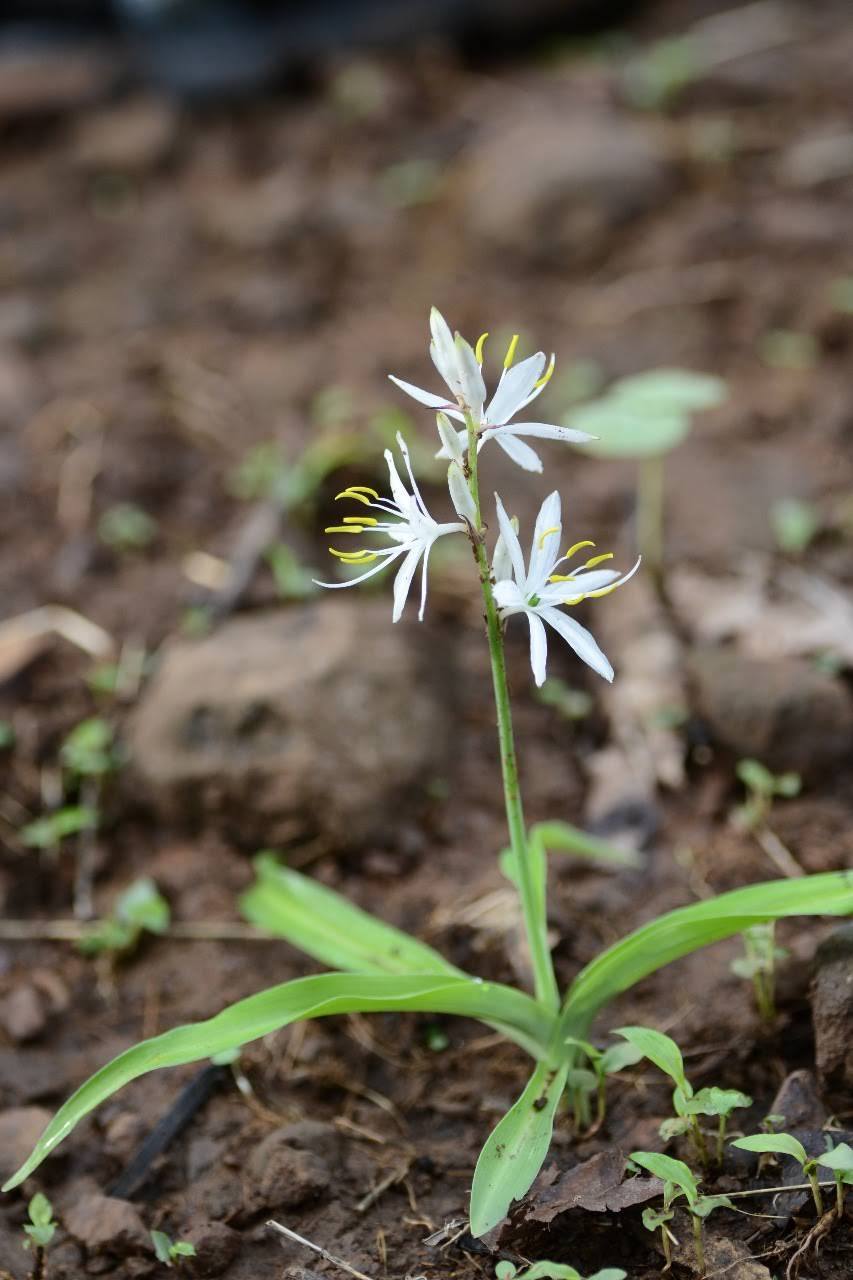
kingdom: Plantae
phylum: Tracheophyta
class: Liliopsida
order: Asparagales
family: Asparagaceae
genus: Chlorophytum
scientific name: Chlorophytum borivilianum
